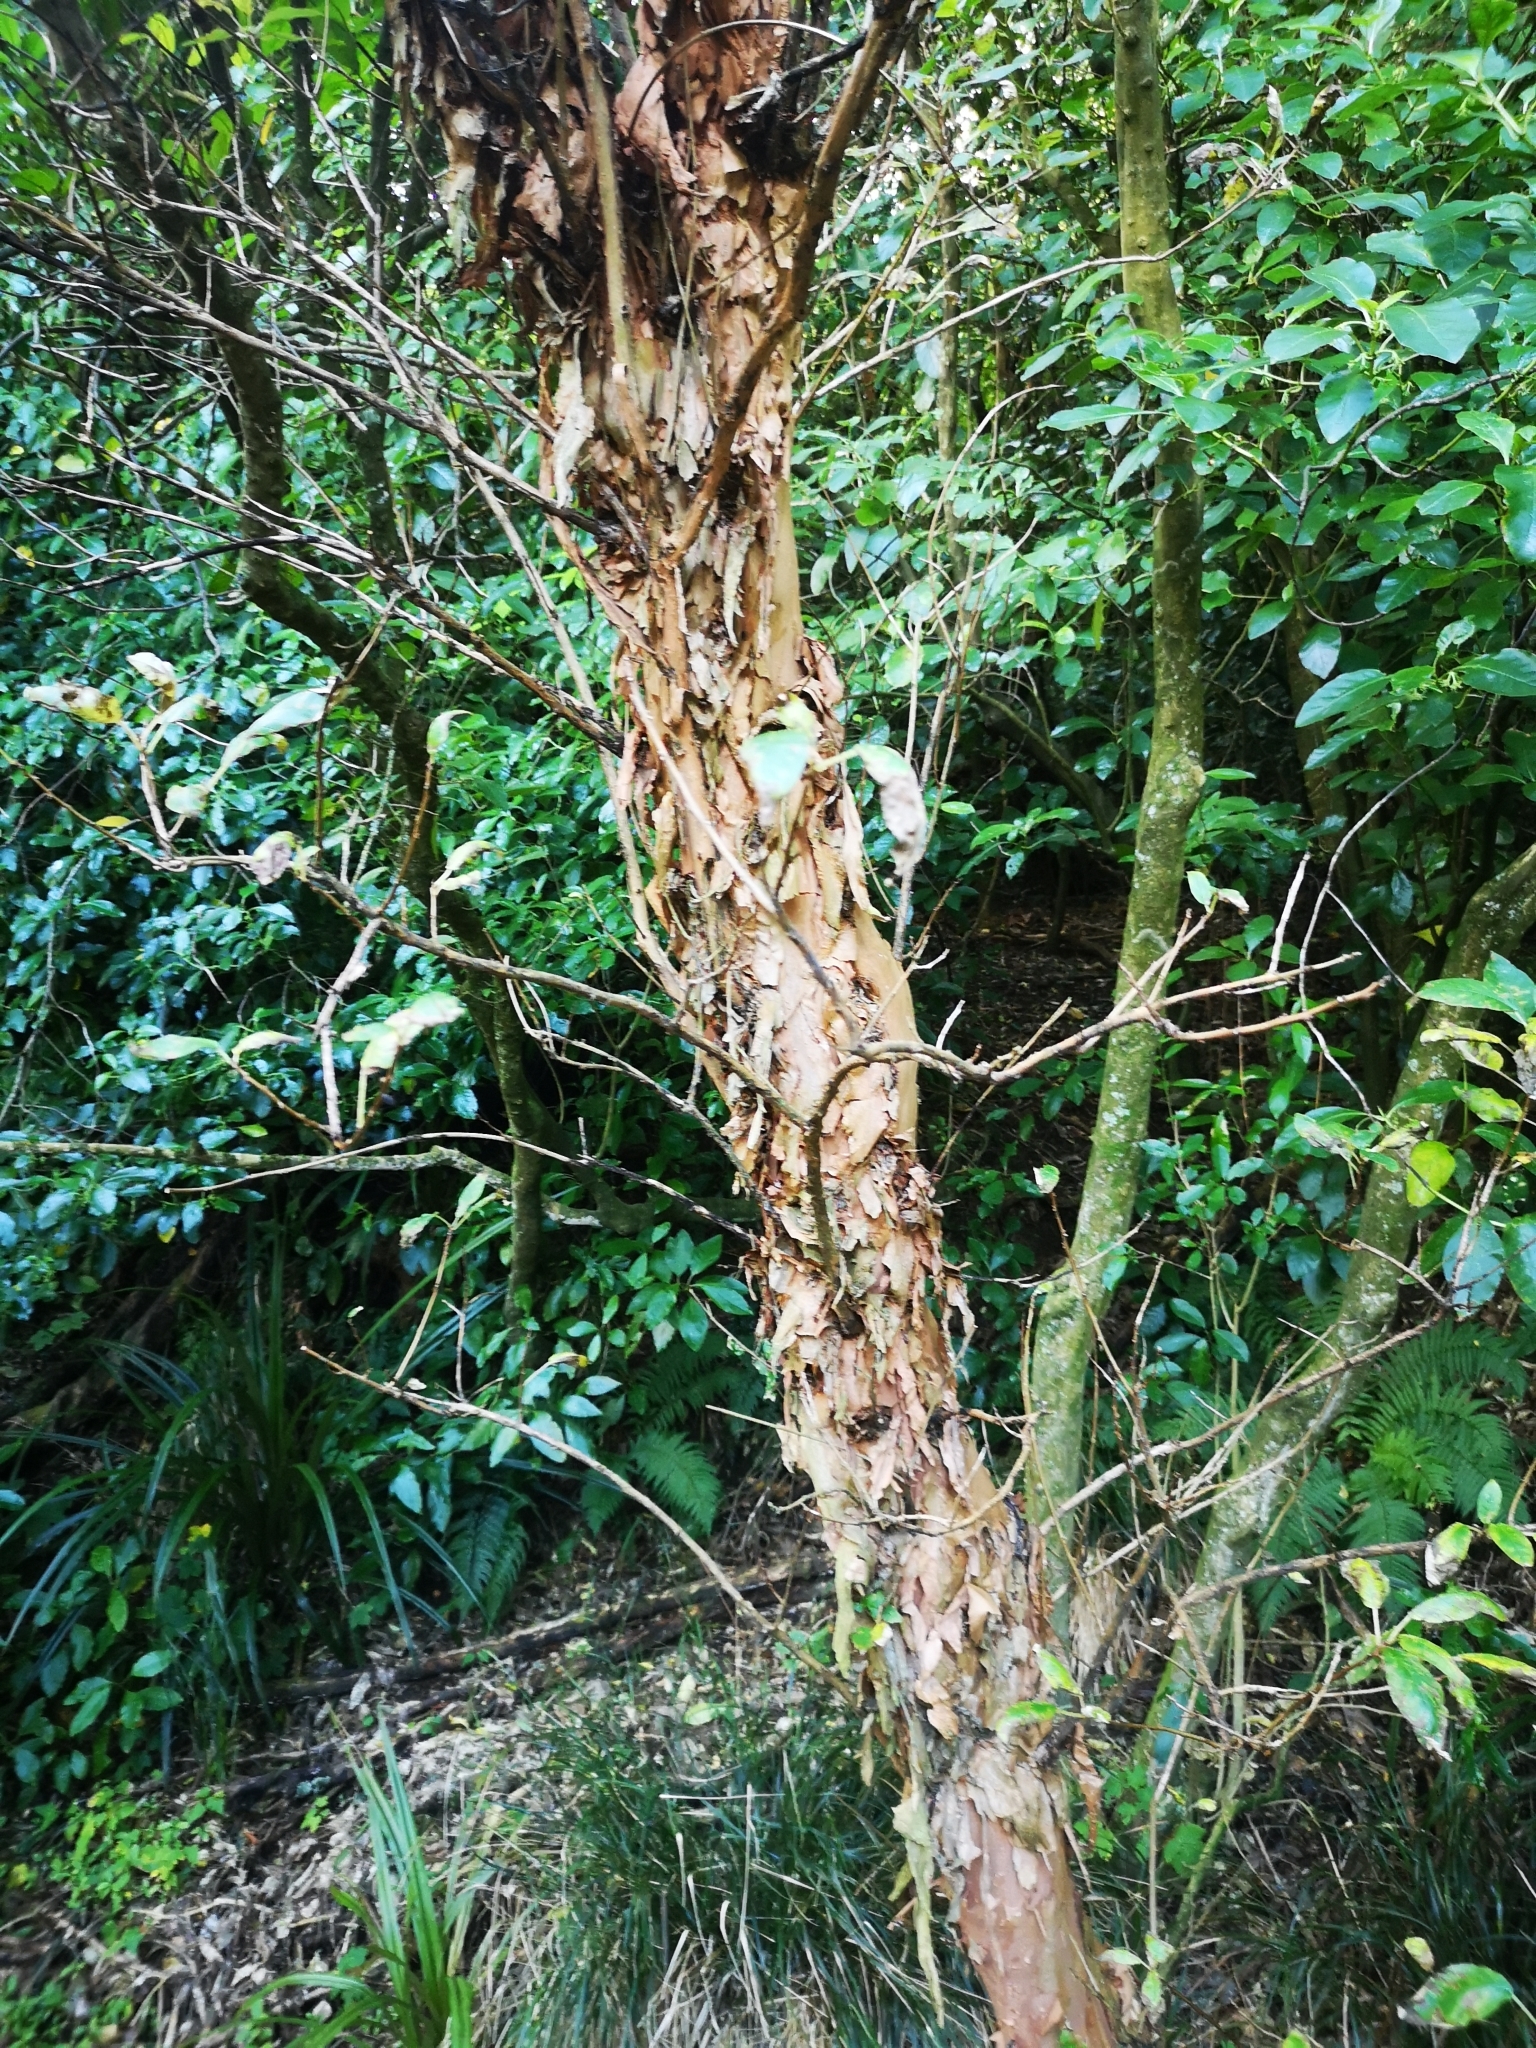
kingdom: Plantae
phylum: Tracheophyta
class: Magnoliopsida
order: Myrtales
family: Onagraceae
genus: Fuchsia
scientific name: Fuchsia excorticata
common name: Tree fuchsia
